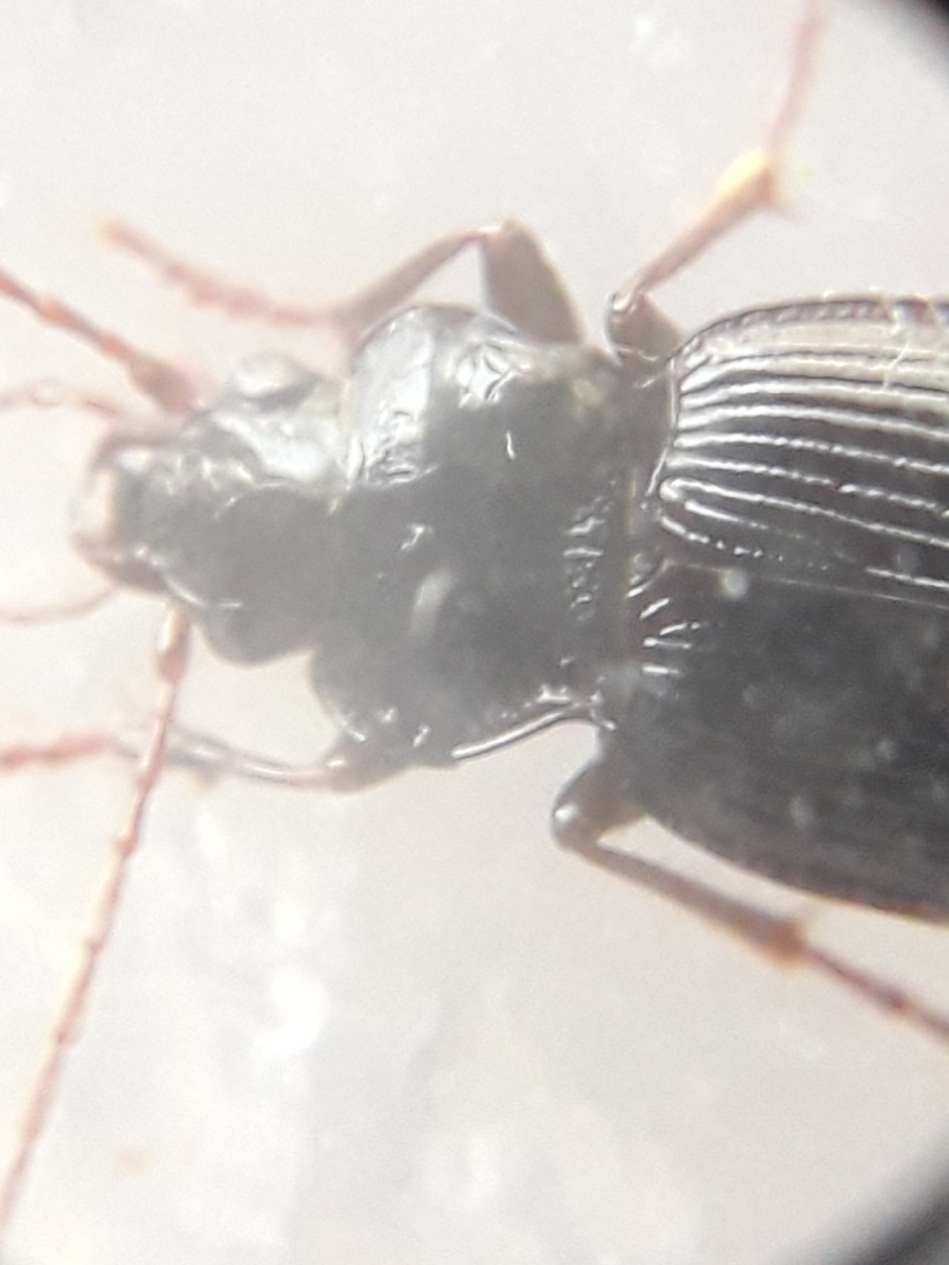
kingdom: Animalia
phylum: Arthropoda
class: Insecta
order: Coleoptera
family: Carabidae
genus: Nebria
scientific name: Nebria brevicollis
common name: Short-necked gazelle beetle
